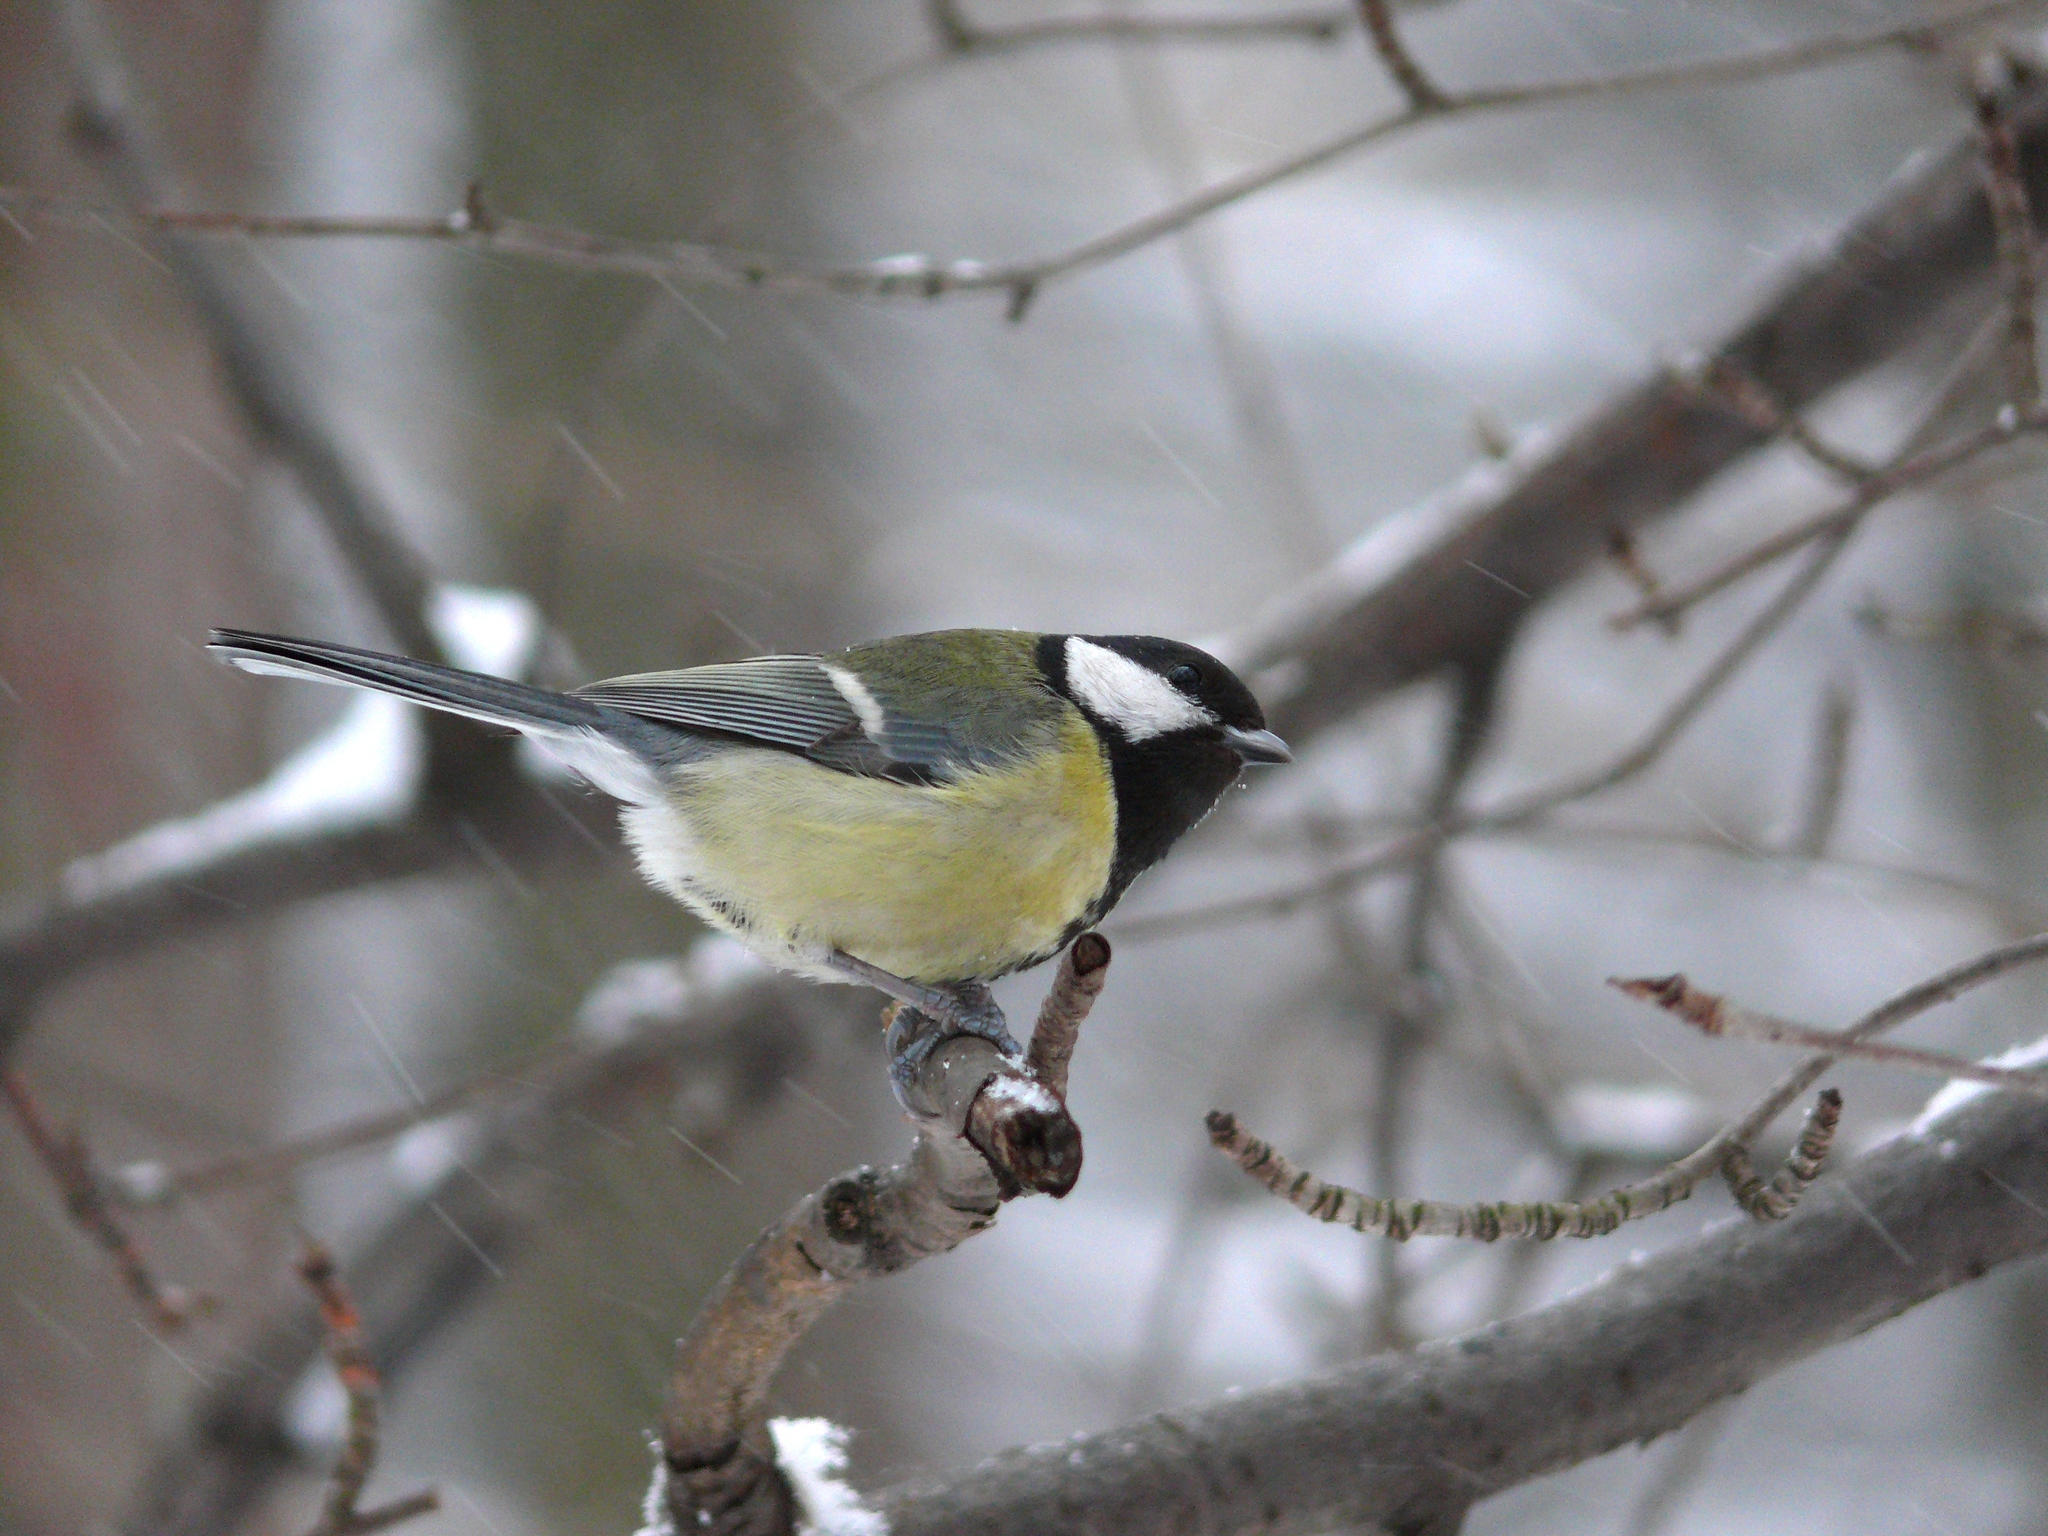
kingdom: Animalia
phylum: Chordata
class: Aves
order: Passeriformes
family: Paridae
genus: Parus
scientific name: Parus major
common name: Great tit
